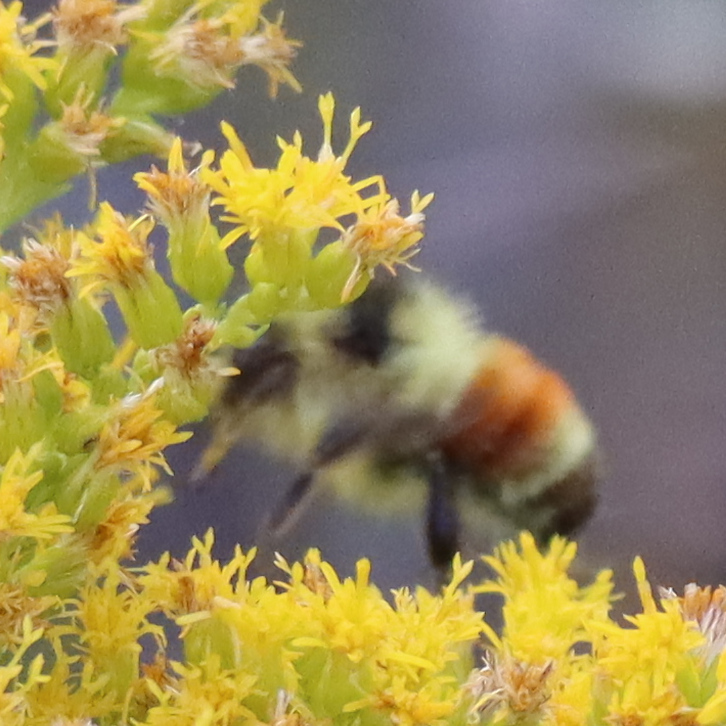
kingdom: Animalia
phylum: Arthropoda
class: Insecta
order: Hymenoptera
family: Apidae
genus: Bombus
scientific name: Bombus ternarius
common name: Tri-colored bumble bee
